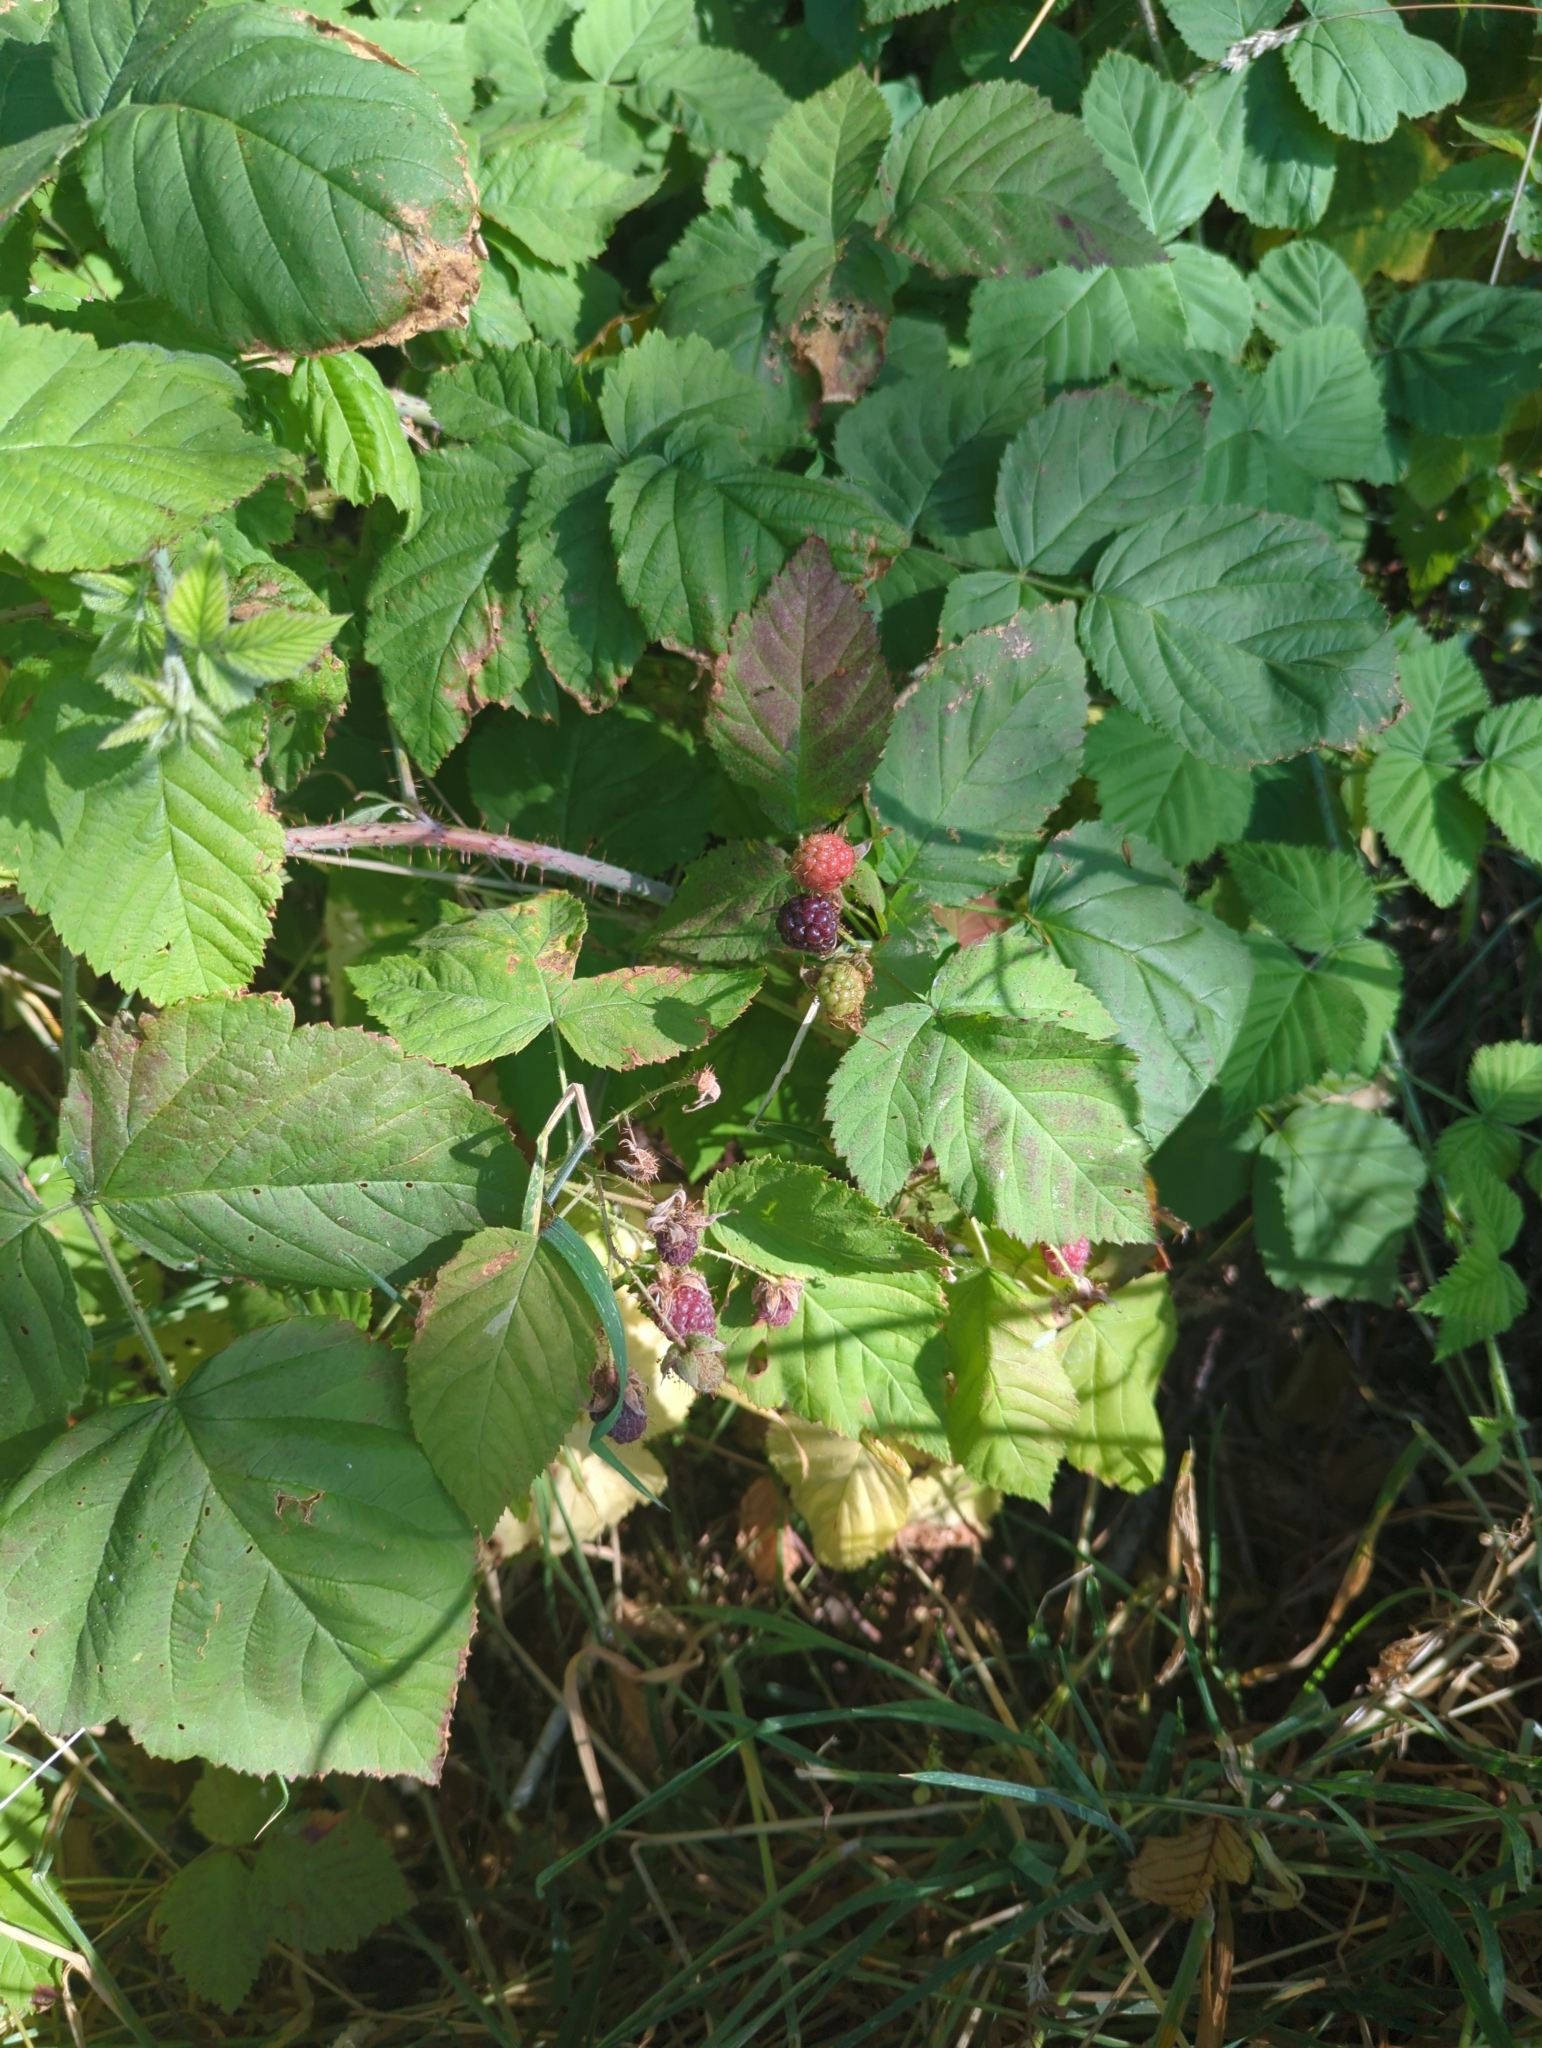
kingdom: Plantae
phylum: Tracheophyta
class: Magnoliopsida
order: Rosales
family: Rosaceae
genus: Rubus
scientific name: Rubus armeniacus
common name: Himalayan blackberry
